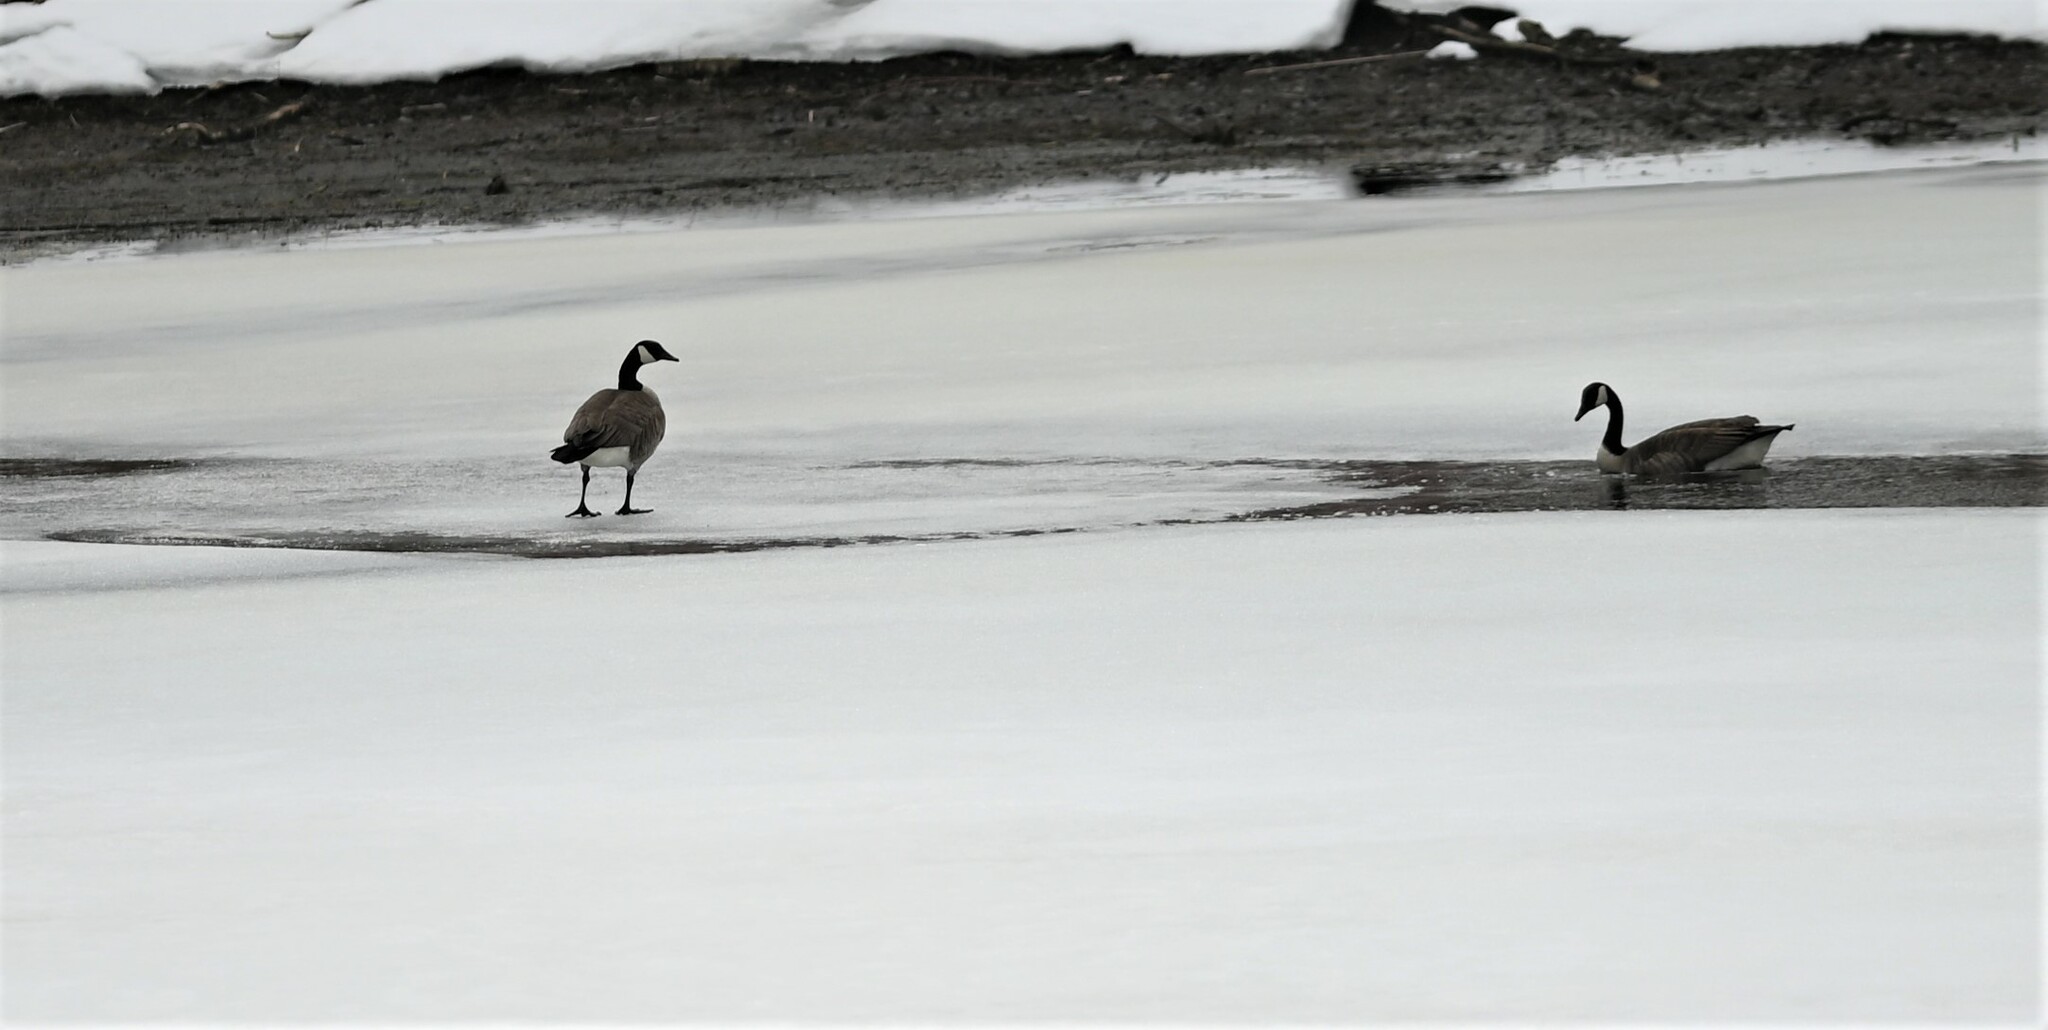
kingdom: Animalia
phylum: Chordata
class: Aves
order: Anseriformes
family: Anatidae
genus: Branta
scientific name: Branta canadensis
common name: Canada goose
